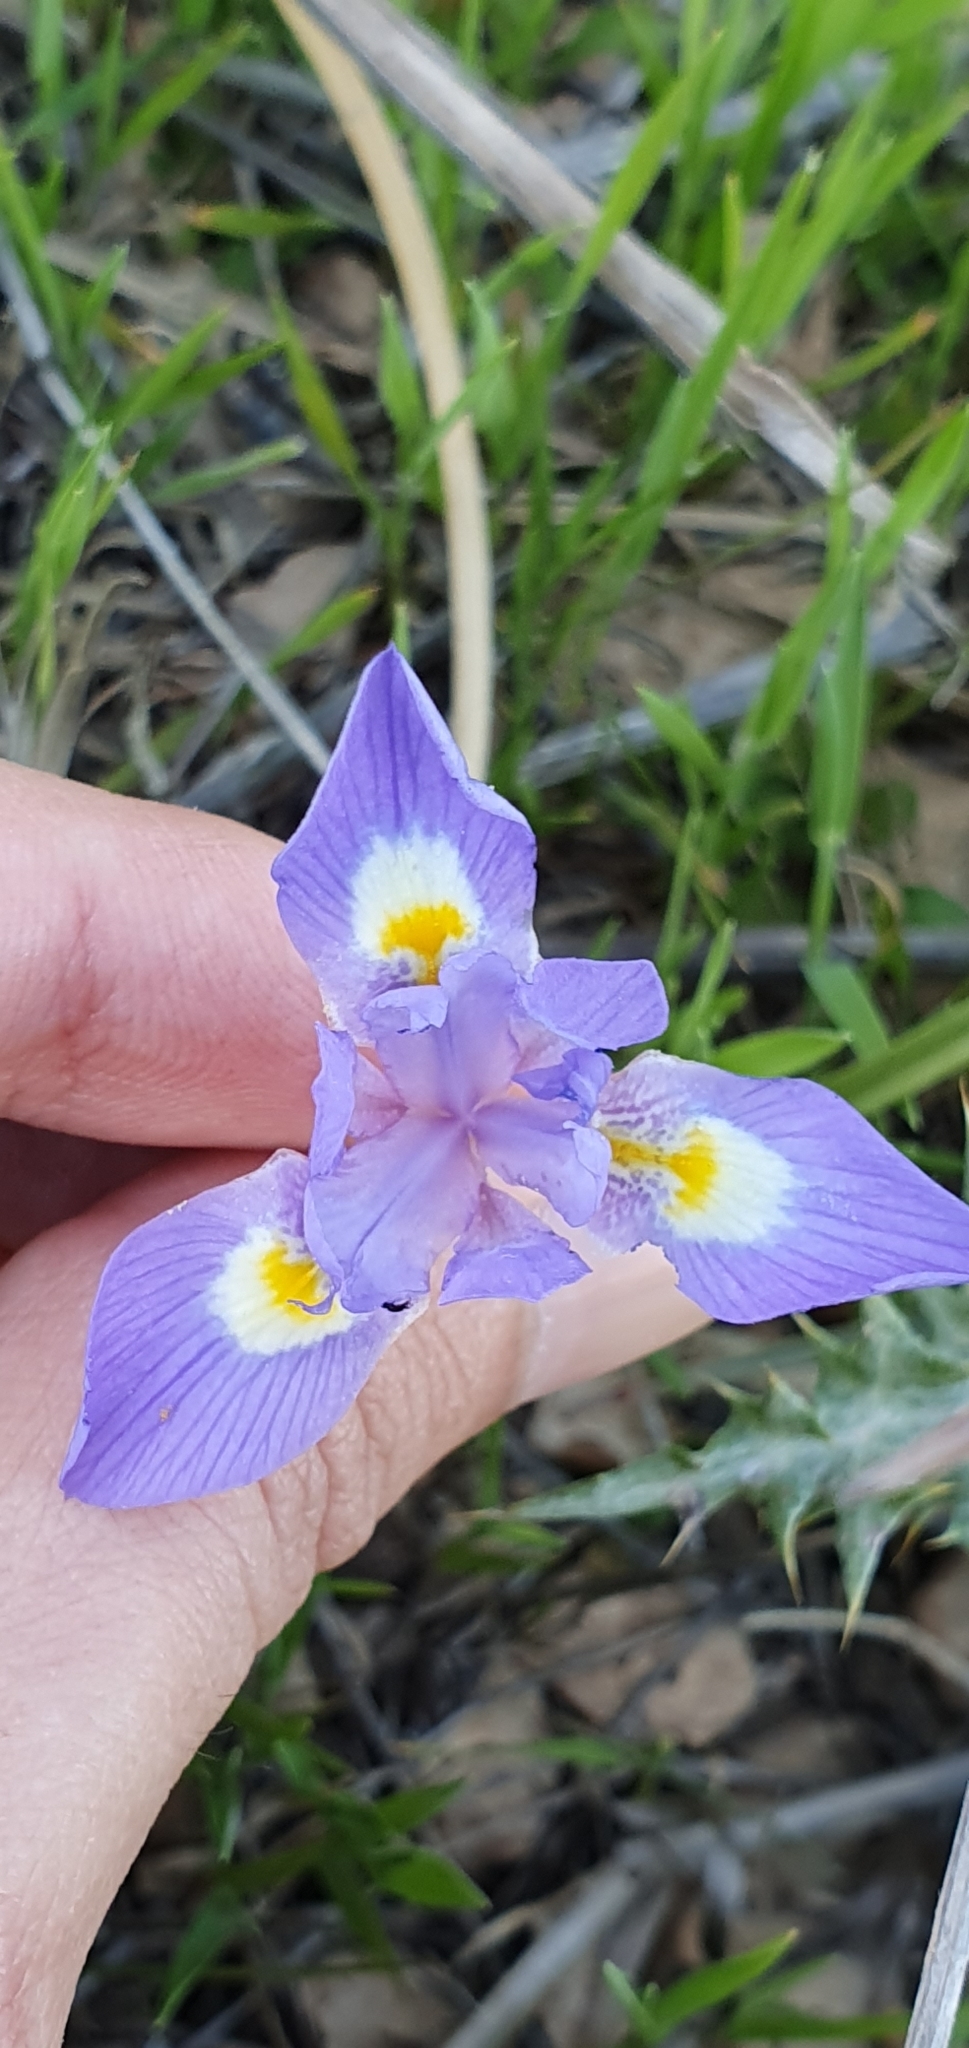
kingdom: Plantae
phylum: Tracheophyta
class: Liliopsida
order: Asparagales
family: Iridaceae
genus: Moraea
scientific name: Moraea sisyrinchium
